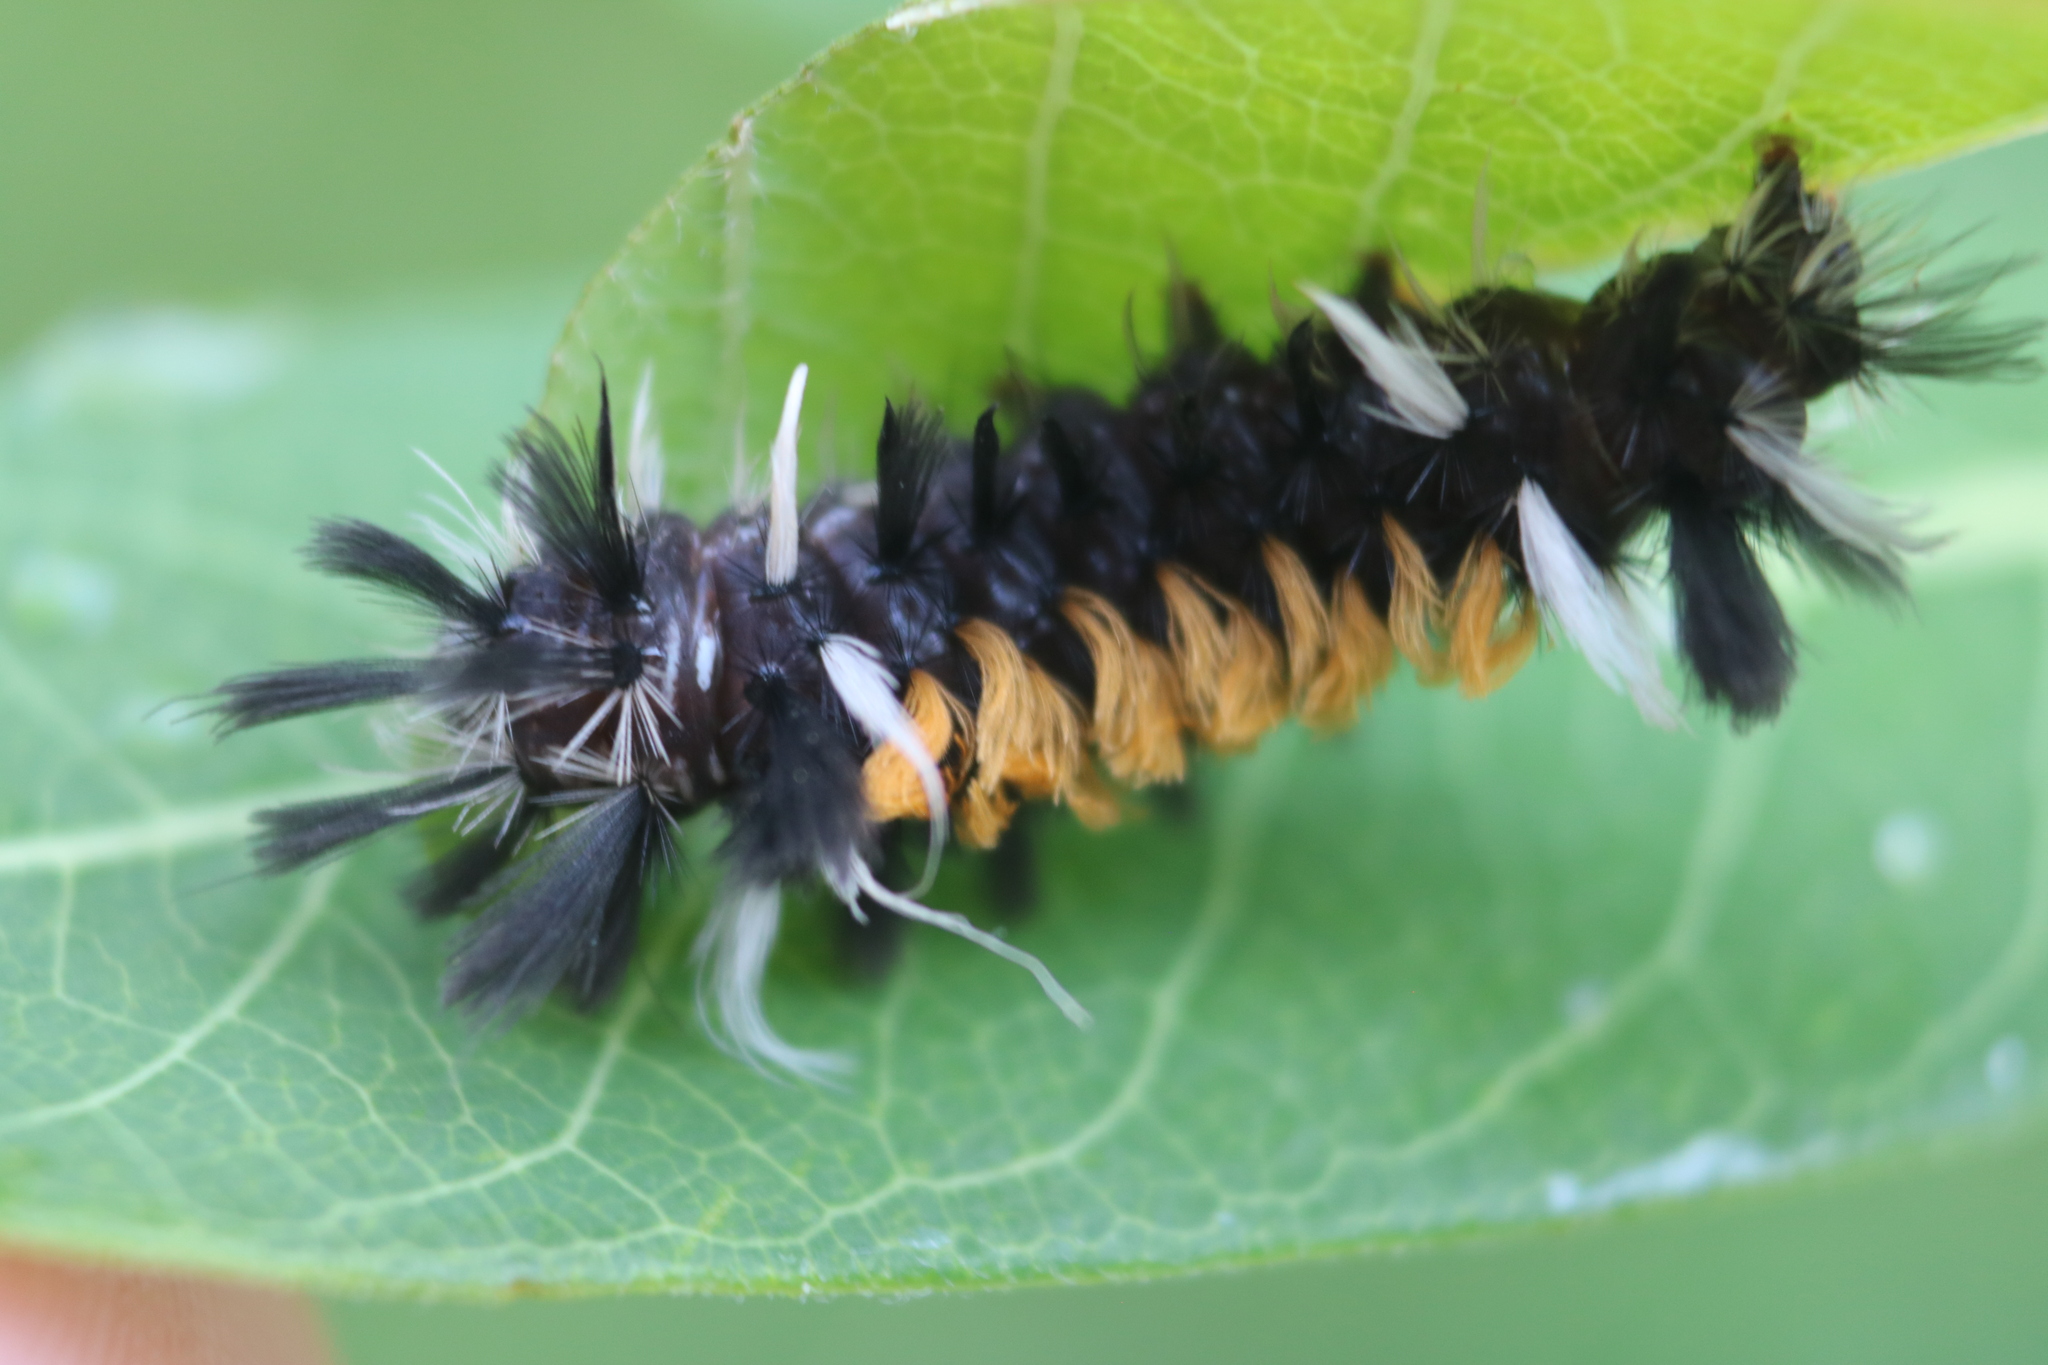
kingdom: Animalia
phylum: Arthropoda
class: Insecta
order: Lepidoptera
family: Erebidae
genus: Euchaetes
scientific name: Euchaetes egle
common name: Milkweed tussock moth
